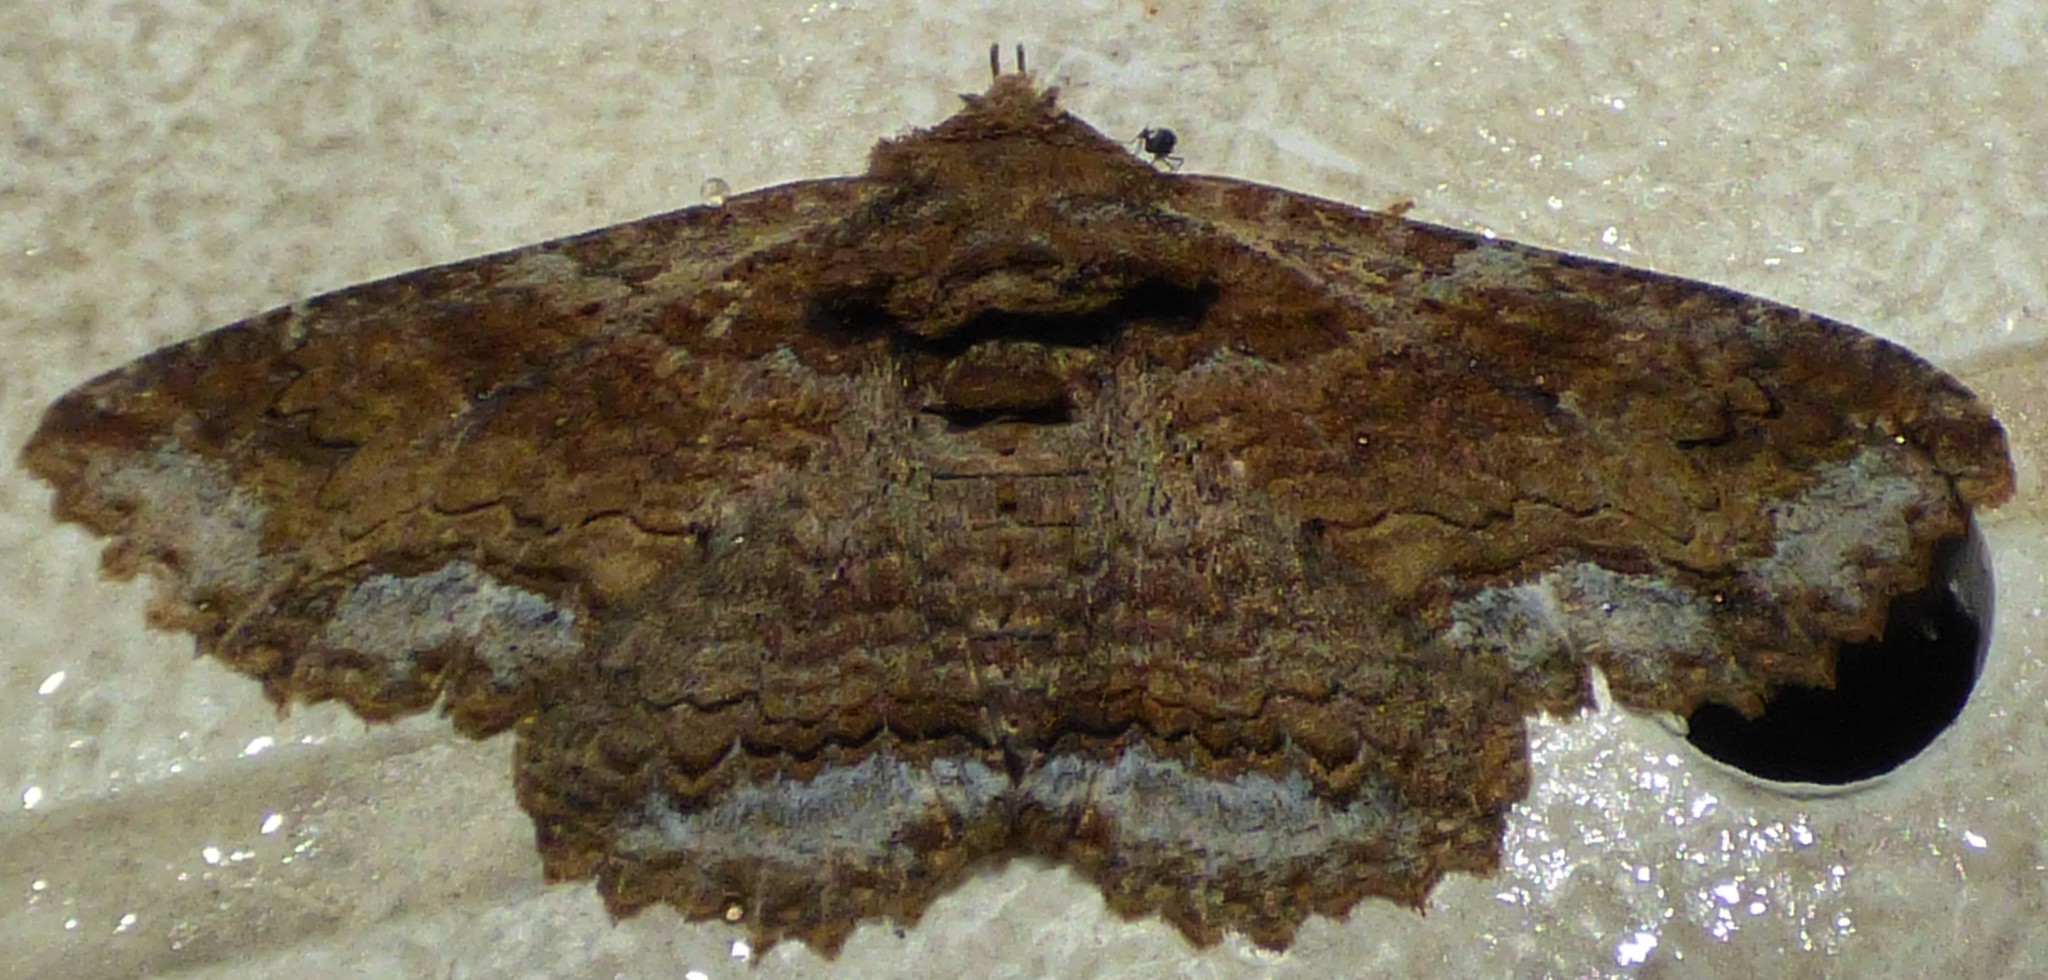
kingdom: Animalia
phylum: Arthropoda
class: Insecta
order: Lepidoptera
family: Erebidae
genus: Zale
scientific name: Zale lunata
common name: Lunate zale moth
